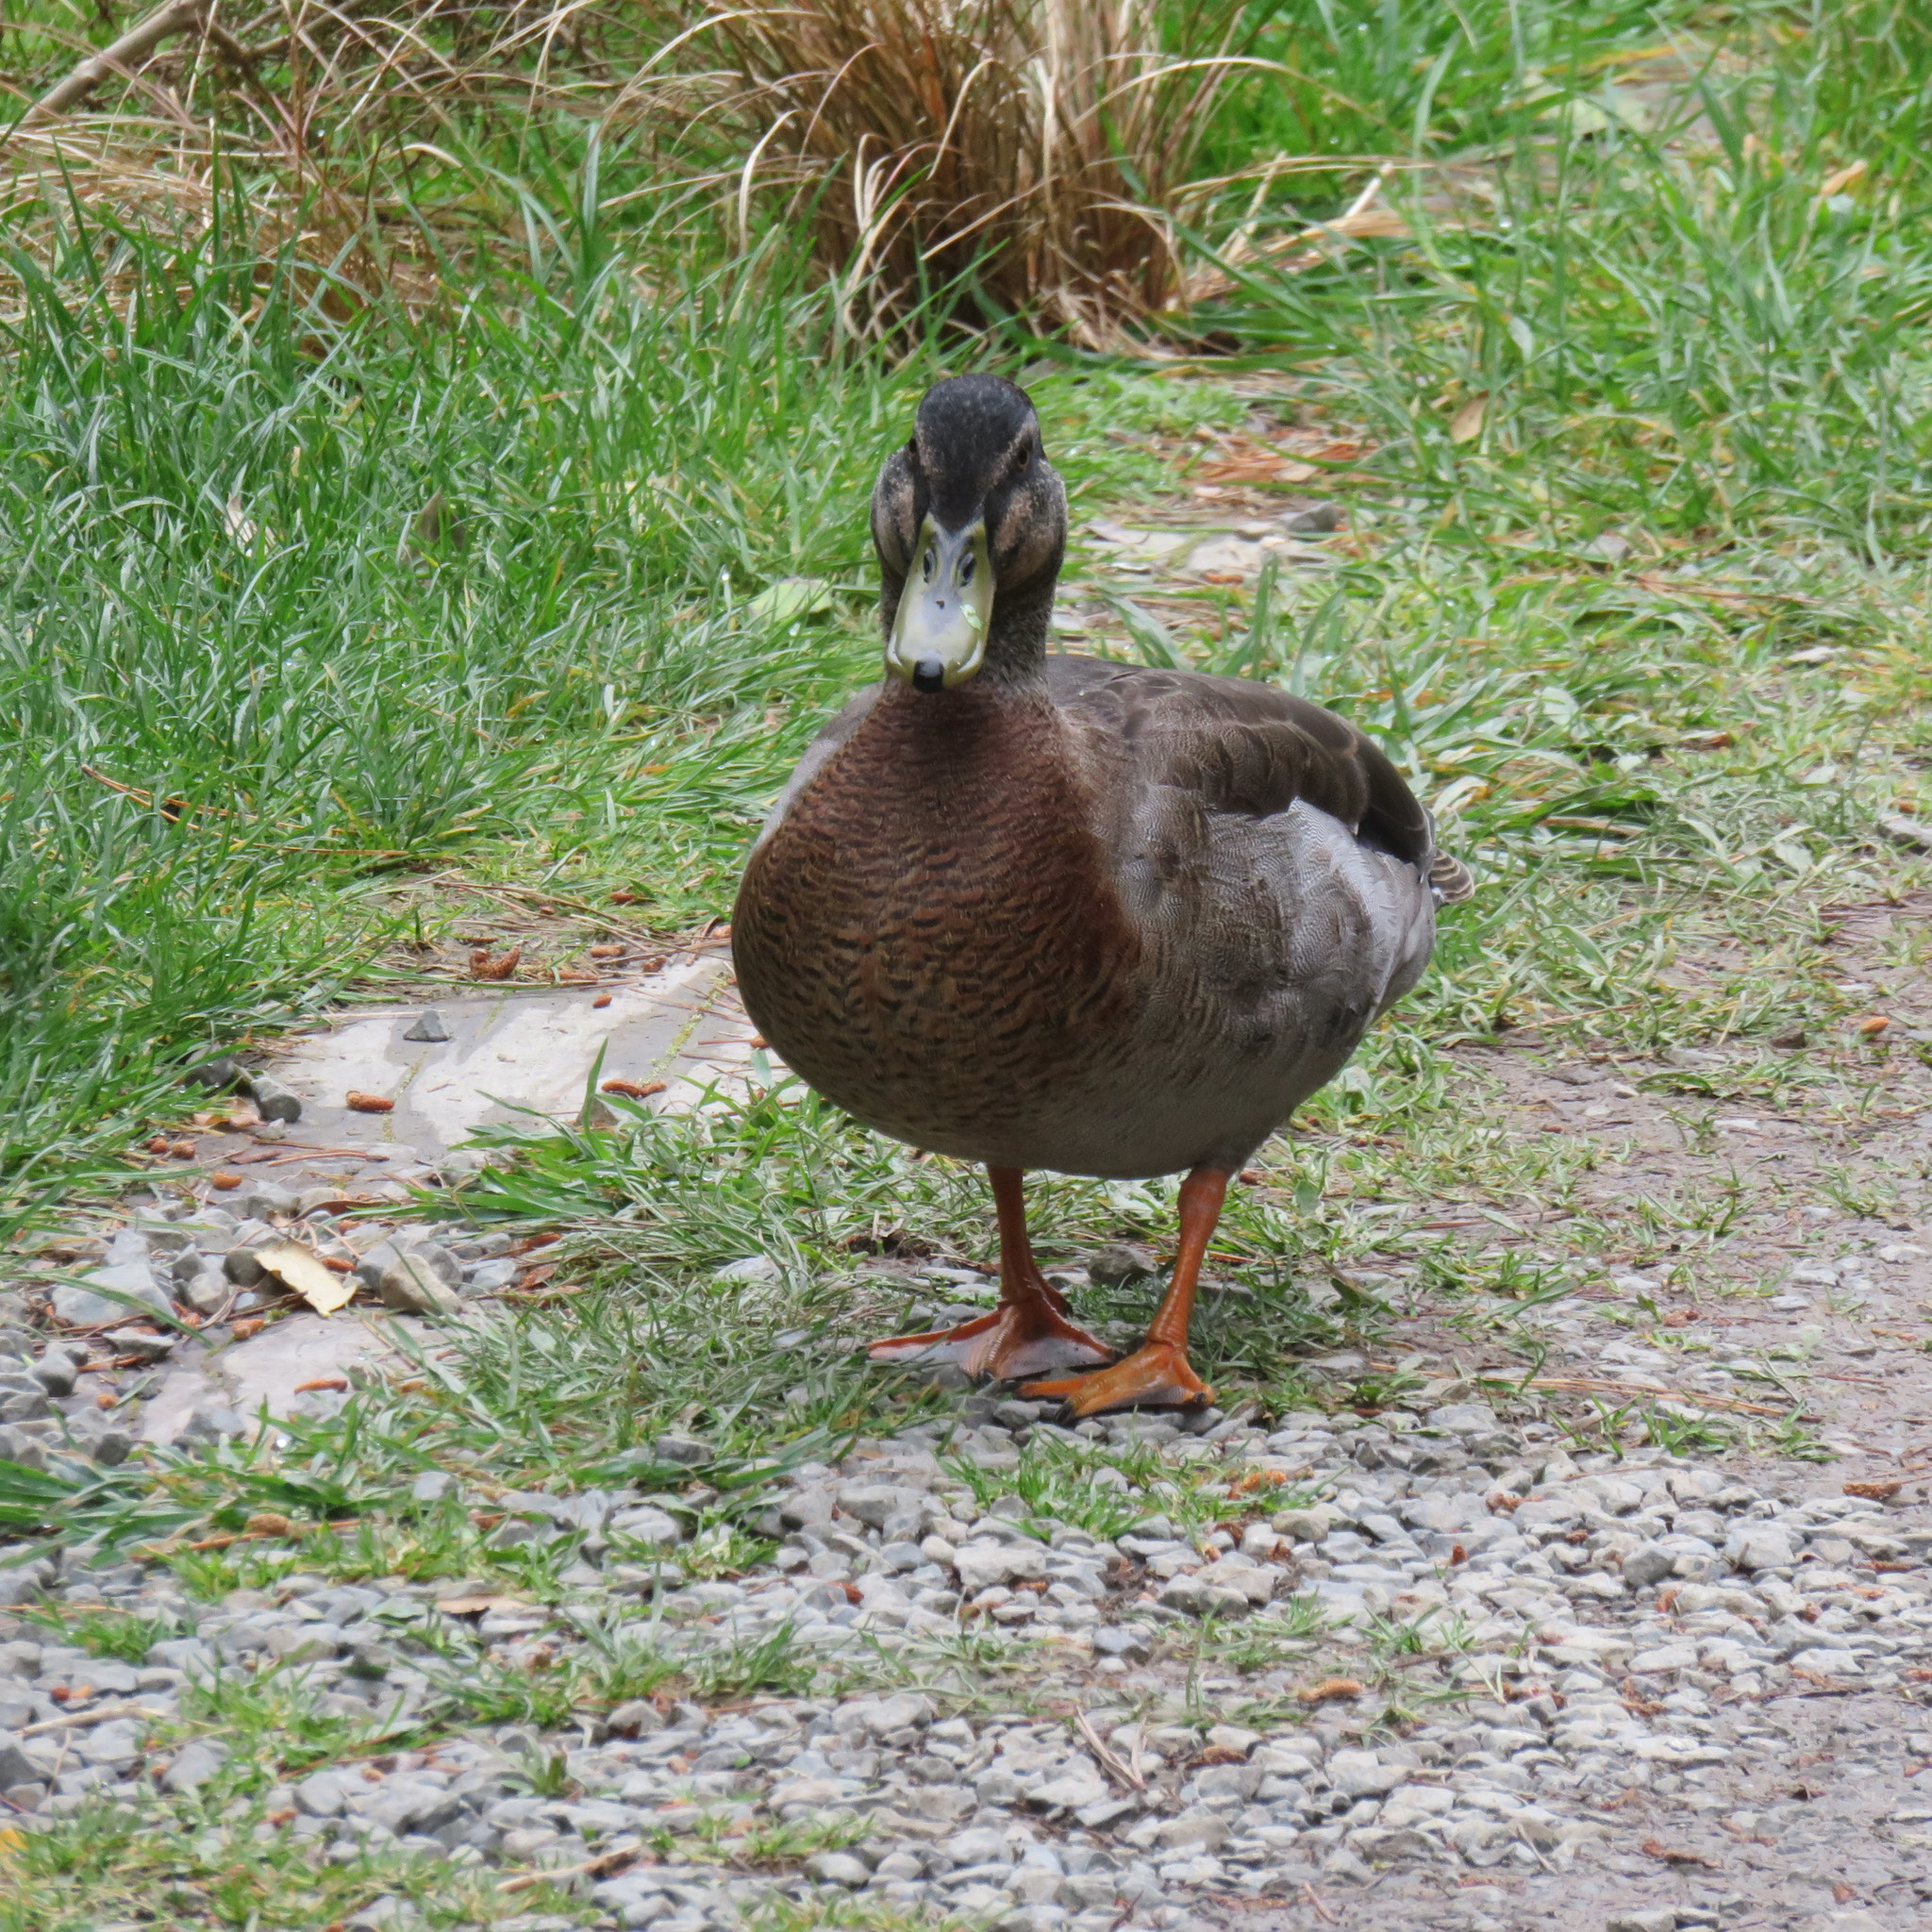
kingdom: Animalia
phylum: Chordata
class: Aves
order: Anseriformes
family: Anatidae
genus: Anas
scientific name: Anas
